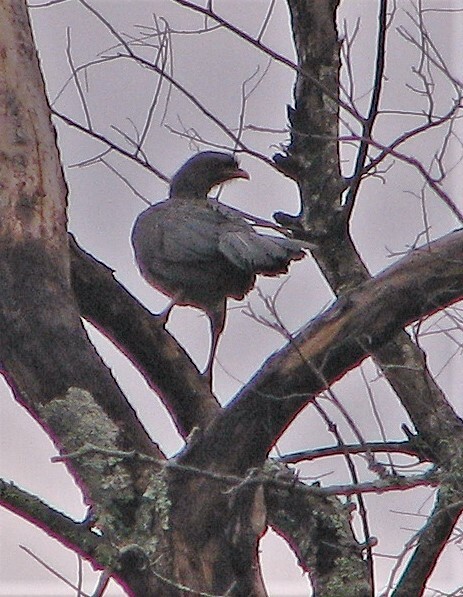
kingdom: Animalia
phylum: Chordata
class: Aves
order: Galliformes
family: Cracidae
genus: Ortalis
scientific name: Ortalis canicollis
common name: Chaco chachalaca
